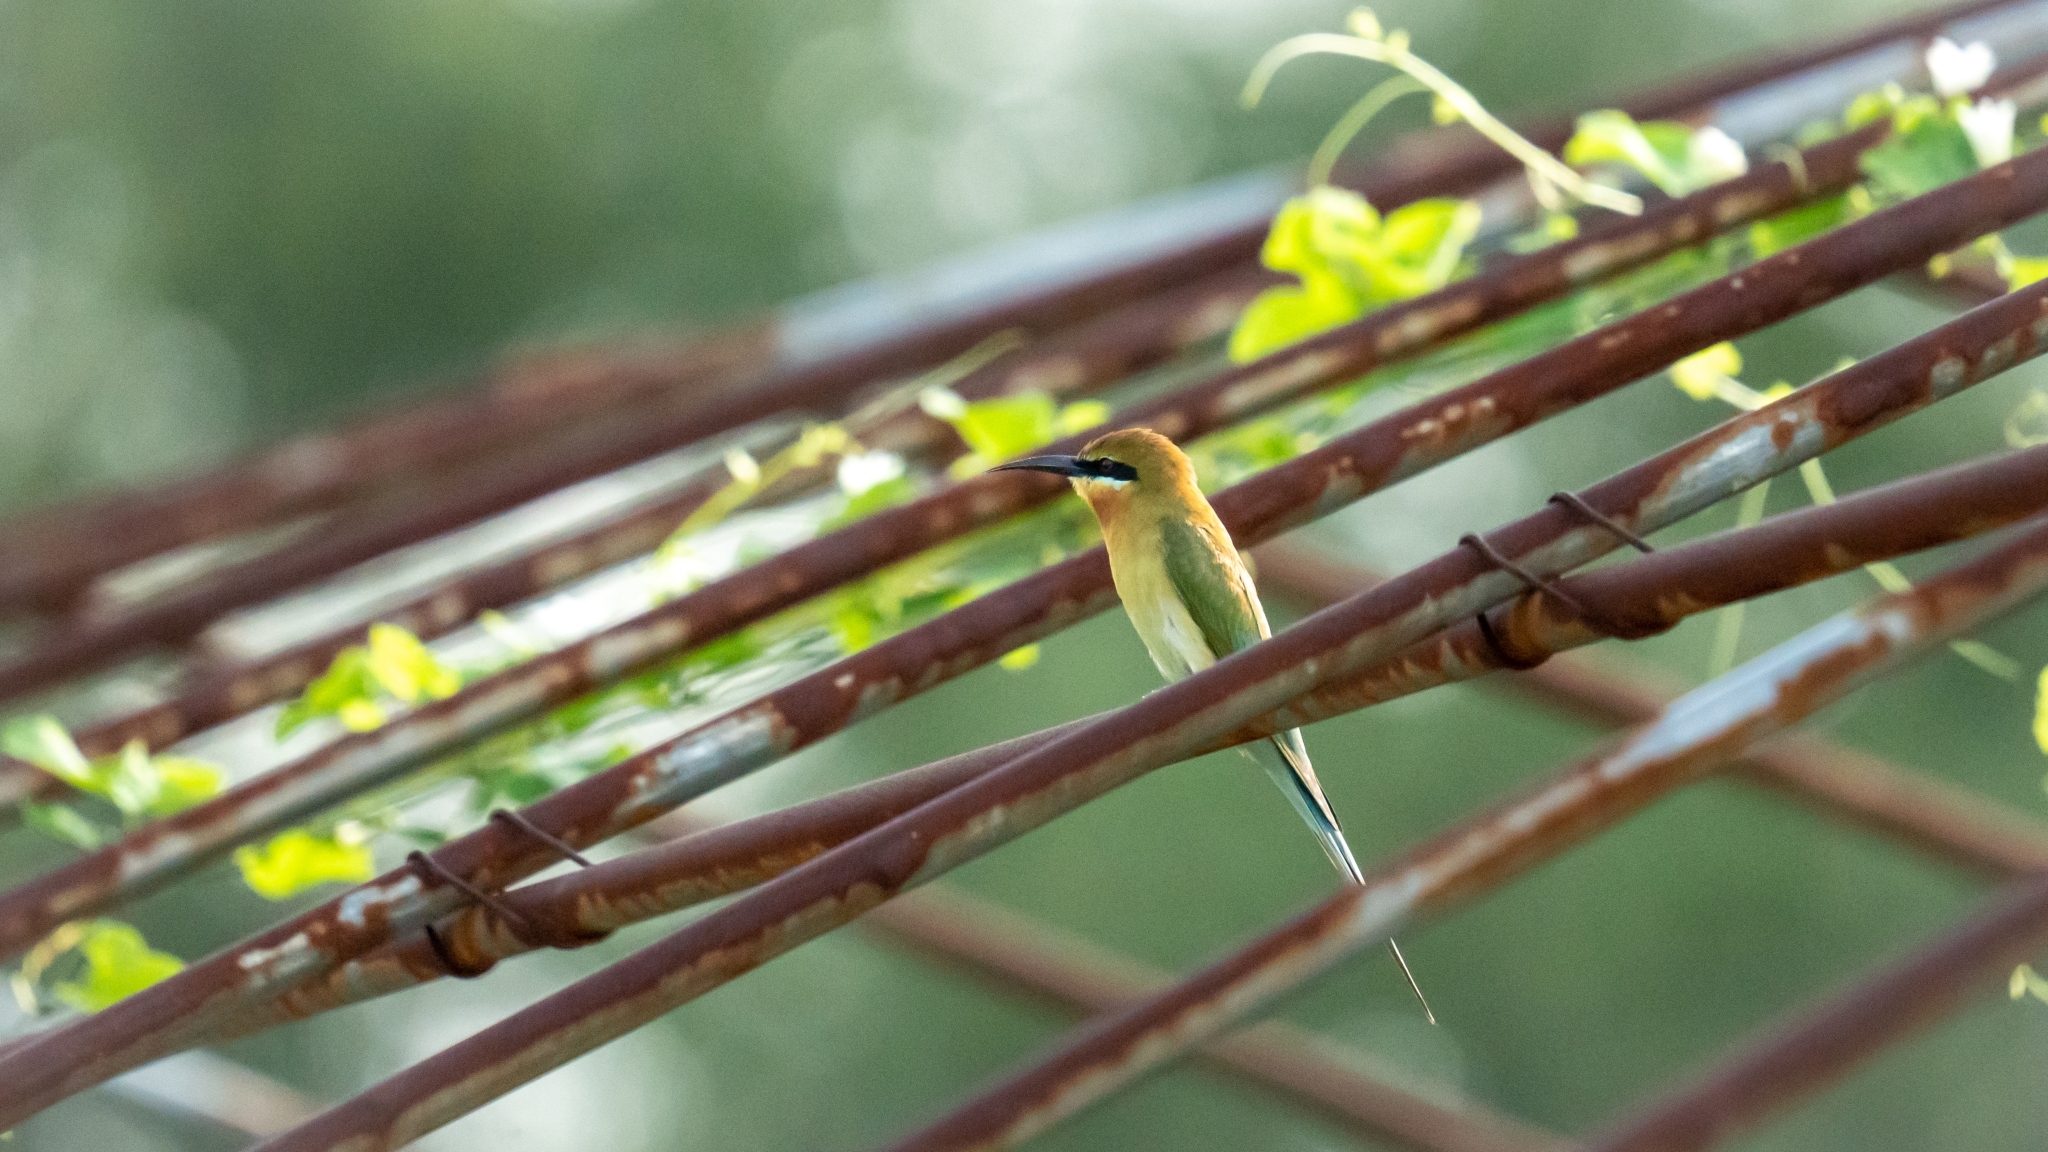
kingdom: Animalia
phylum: Chordata
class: Aves
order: Coraciiformes
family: Meropidae
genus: Merops
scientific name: Merops philippinus
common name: Blue-tailed bee-eater
